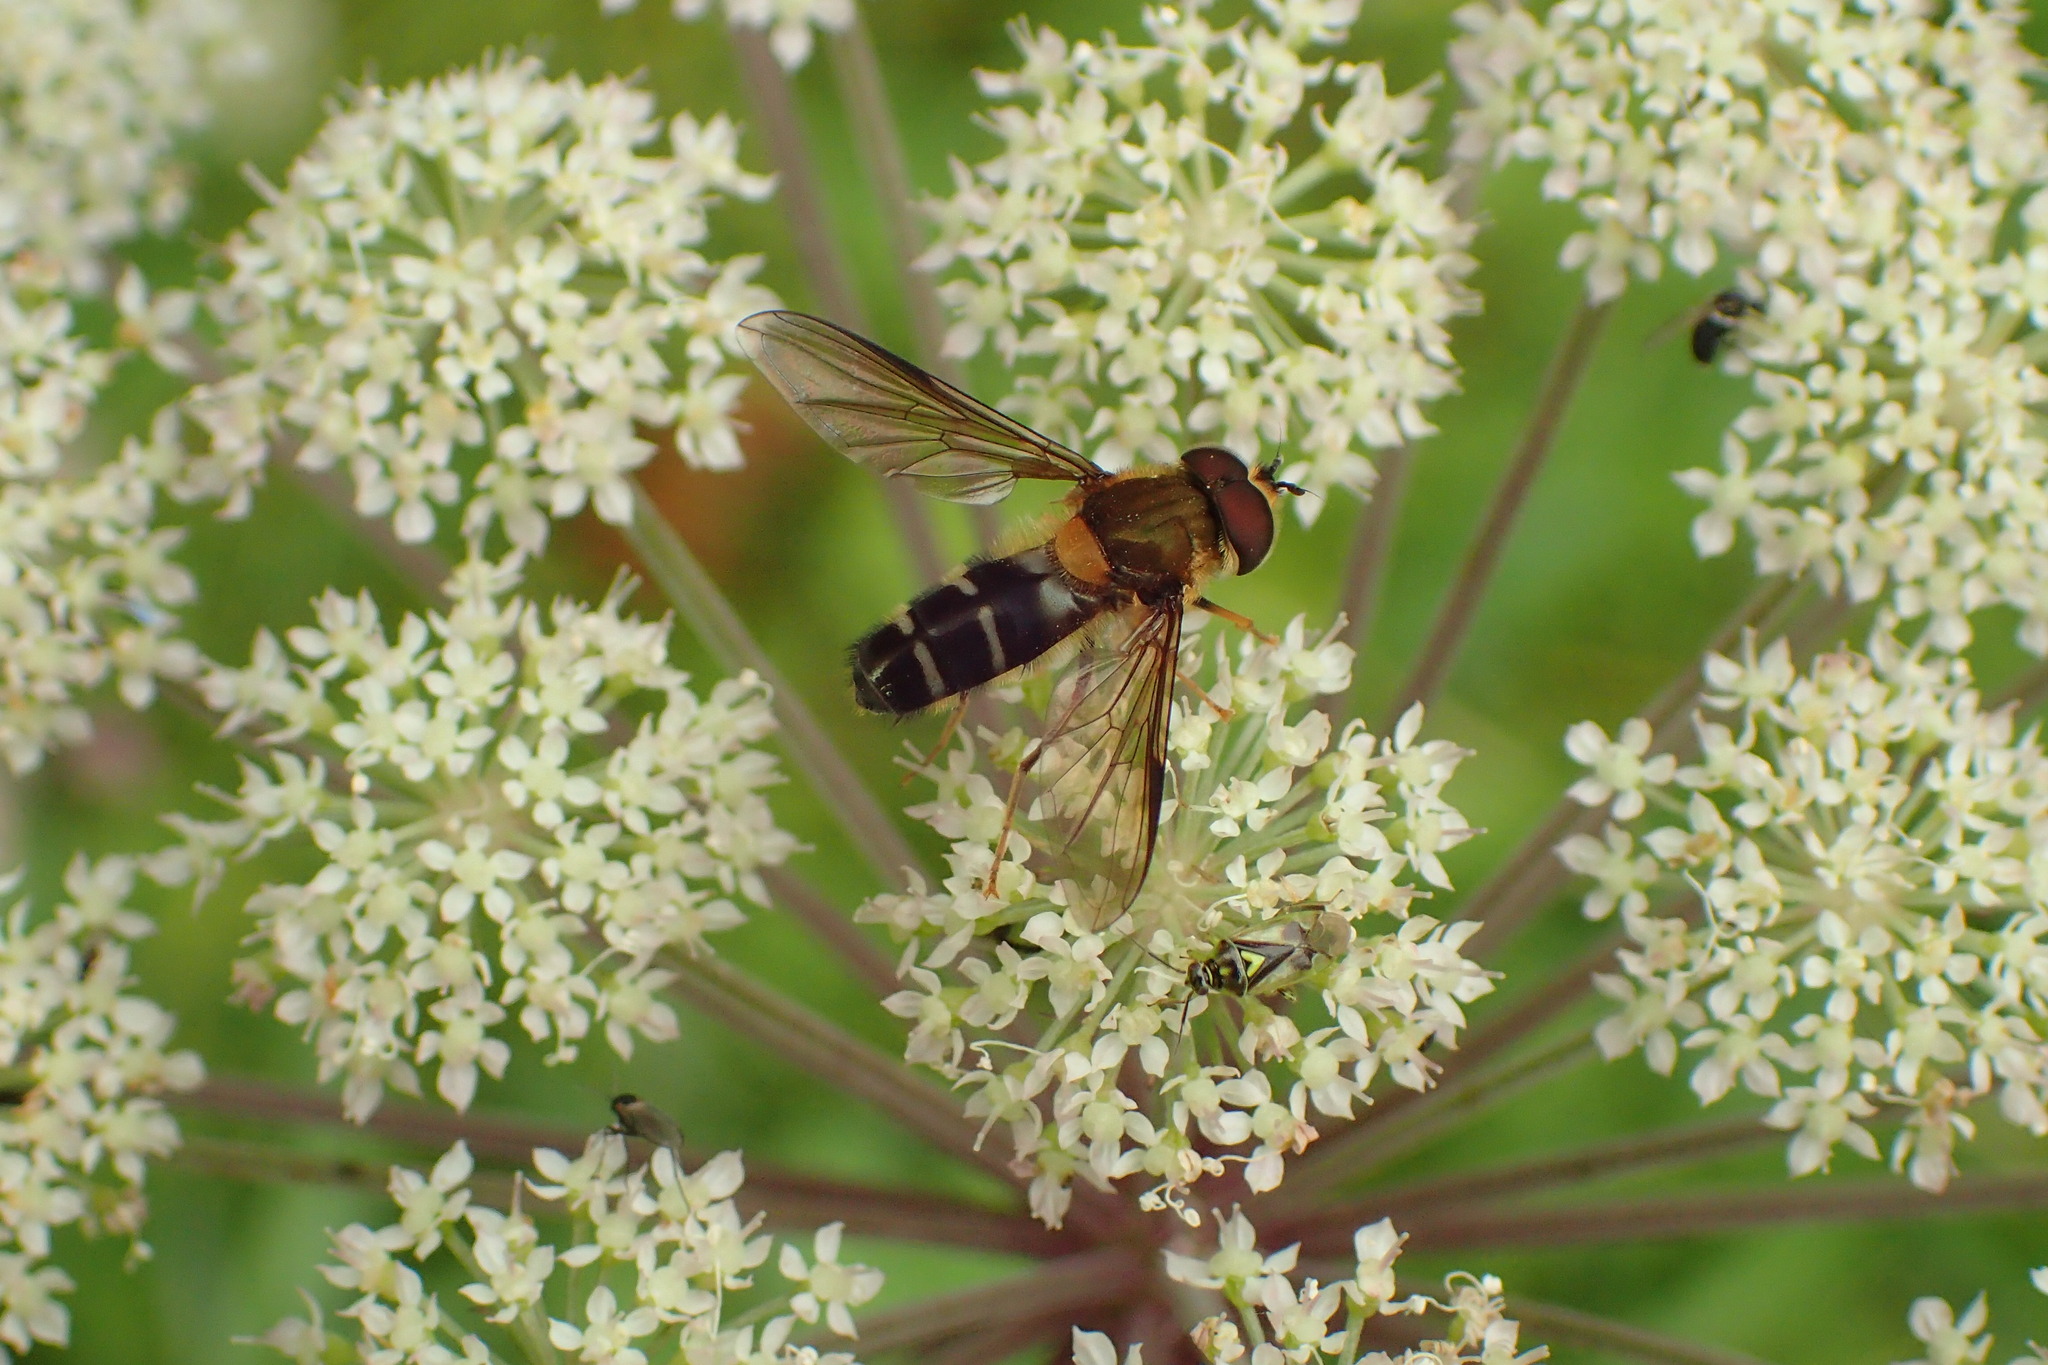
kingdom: Animalia
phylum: Arthropoda
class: Insecta
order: Diptera
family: Syrphidae
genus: Leucozona
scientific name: Leucozona glaucia
